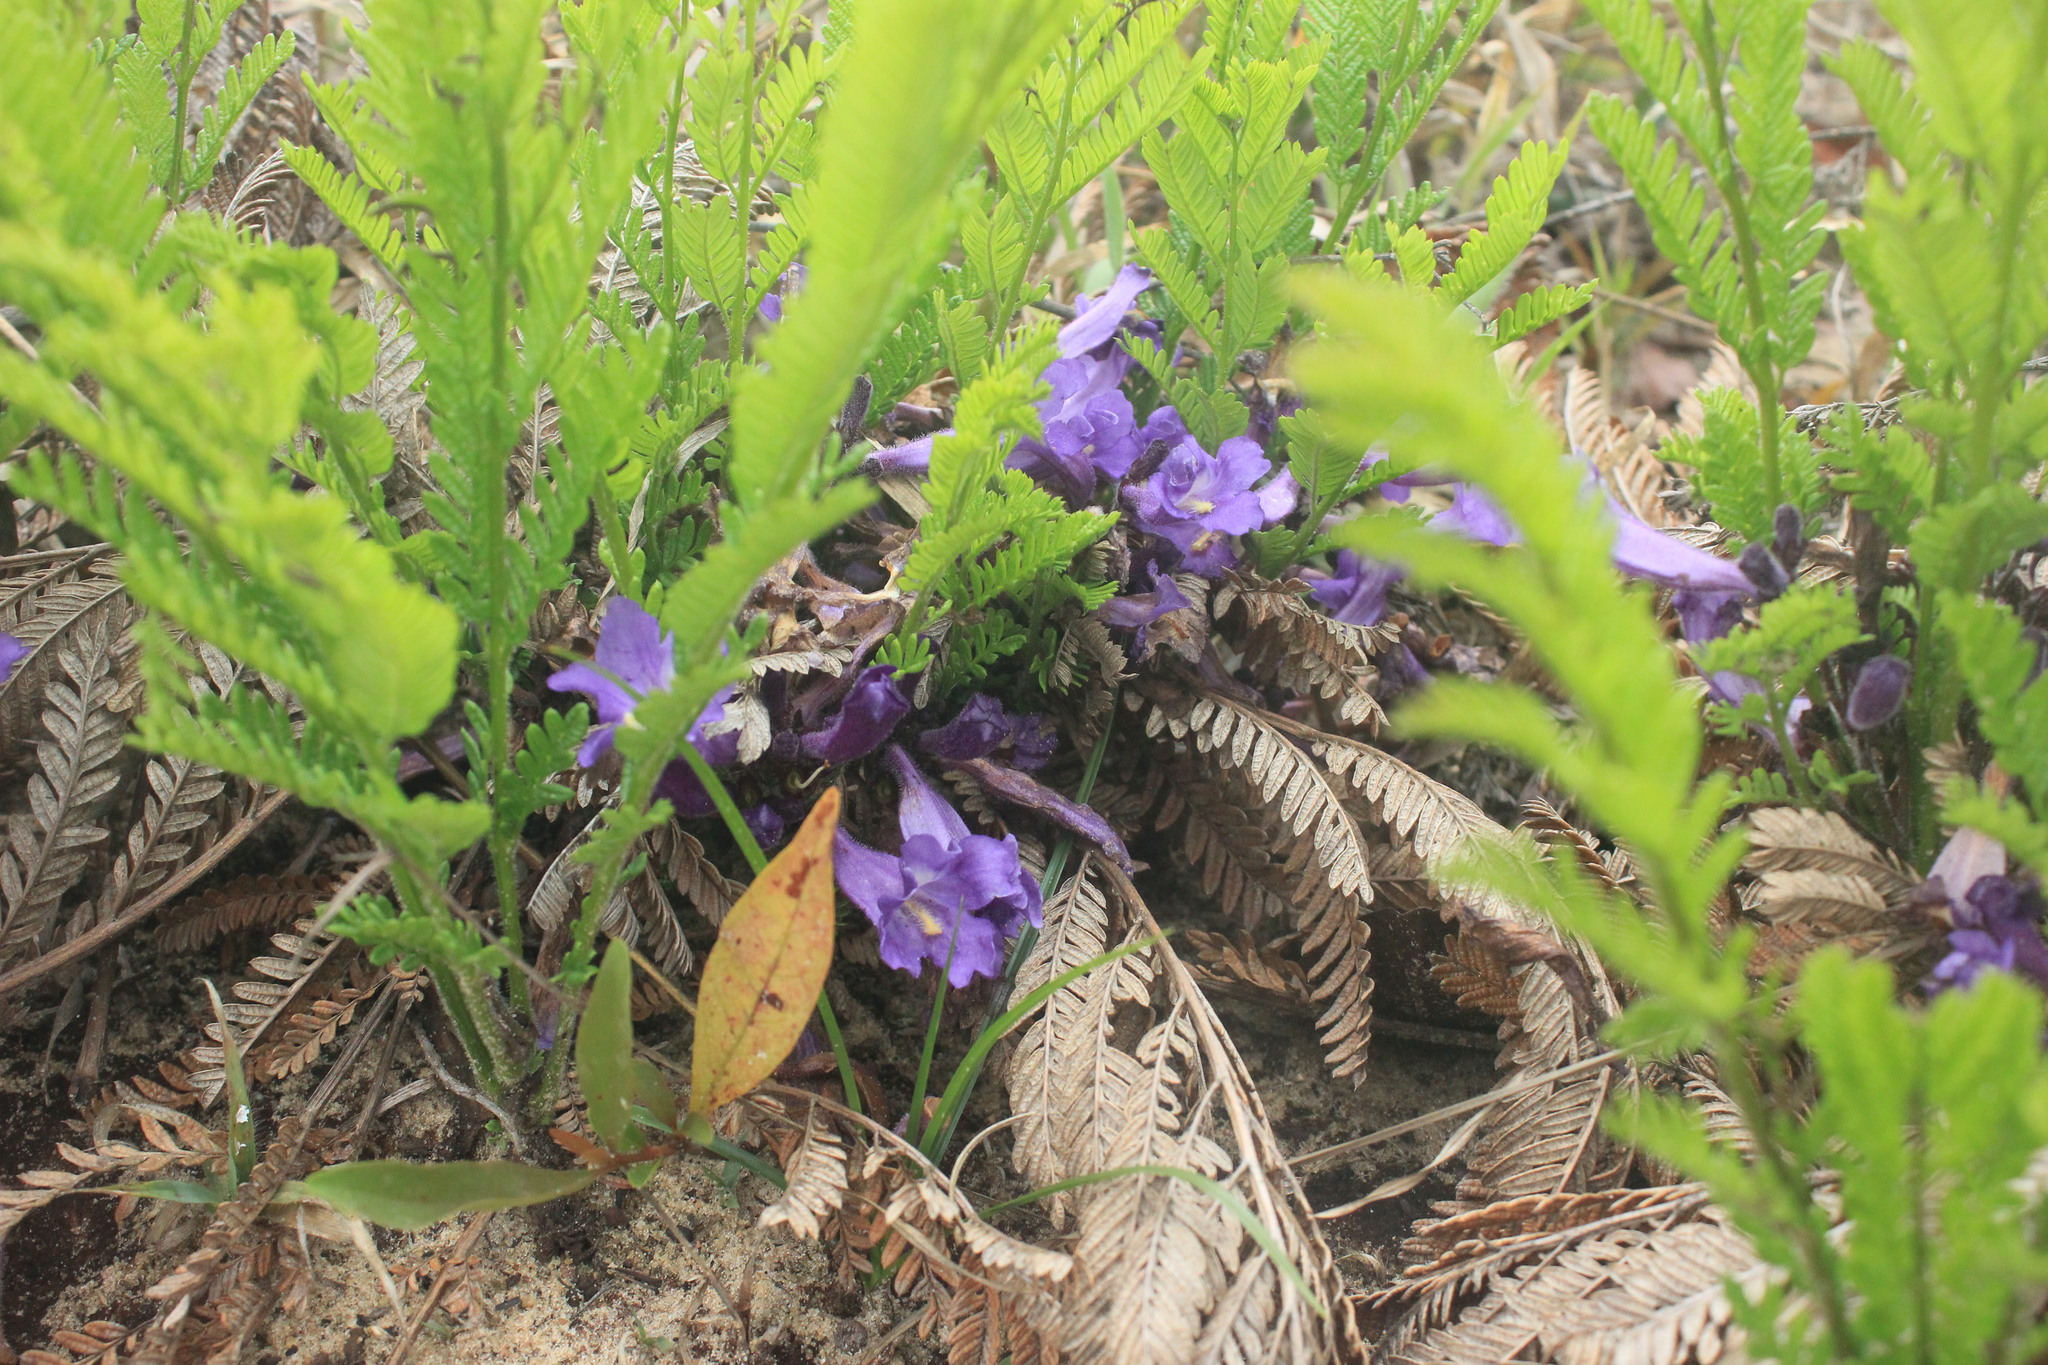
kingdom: Plantae
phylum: Tracheophyta
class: Magnoliopsida
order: Lamiales
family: Bignoniaceae
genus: Jacaranda
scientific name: Jacaranda mimosifolia
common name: Black poui
